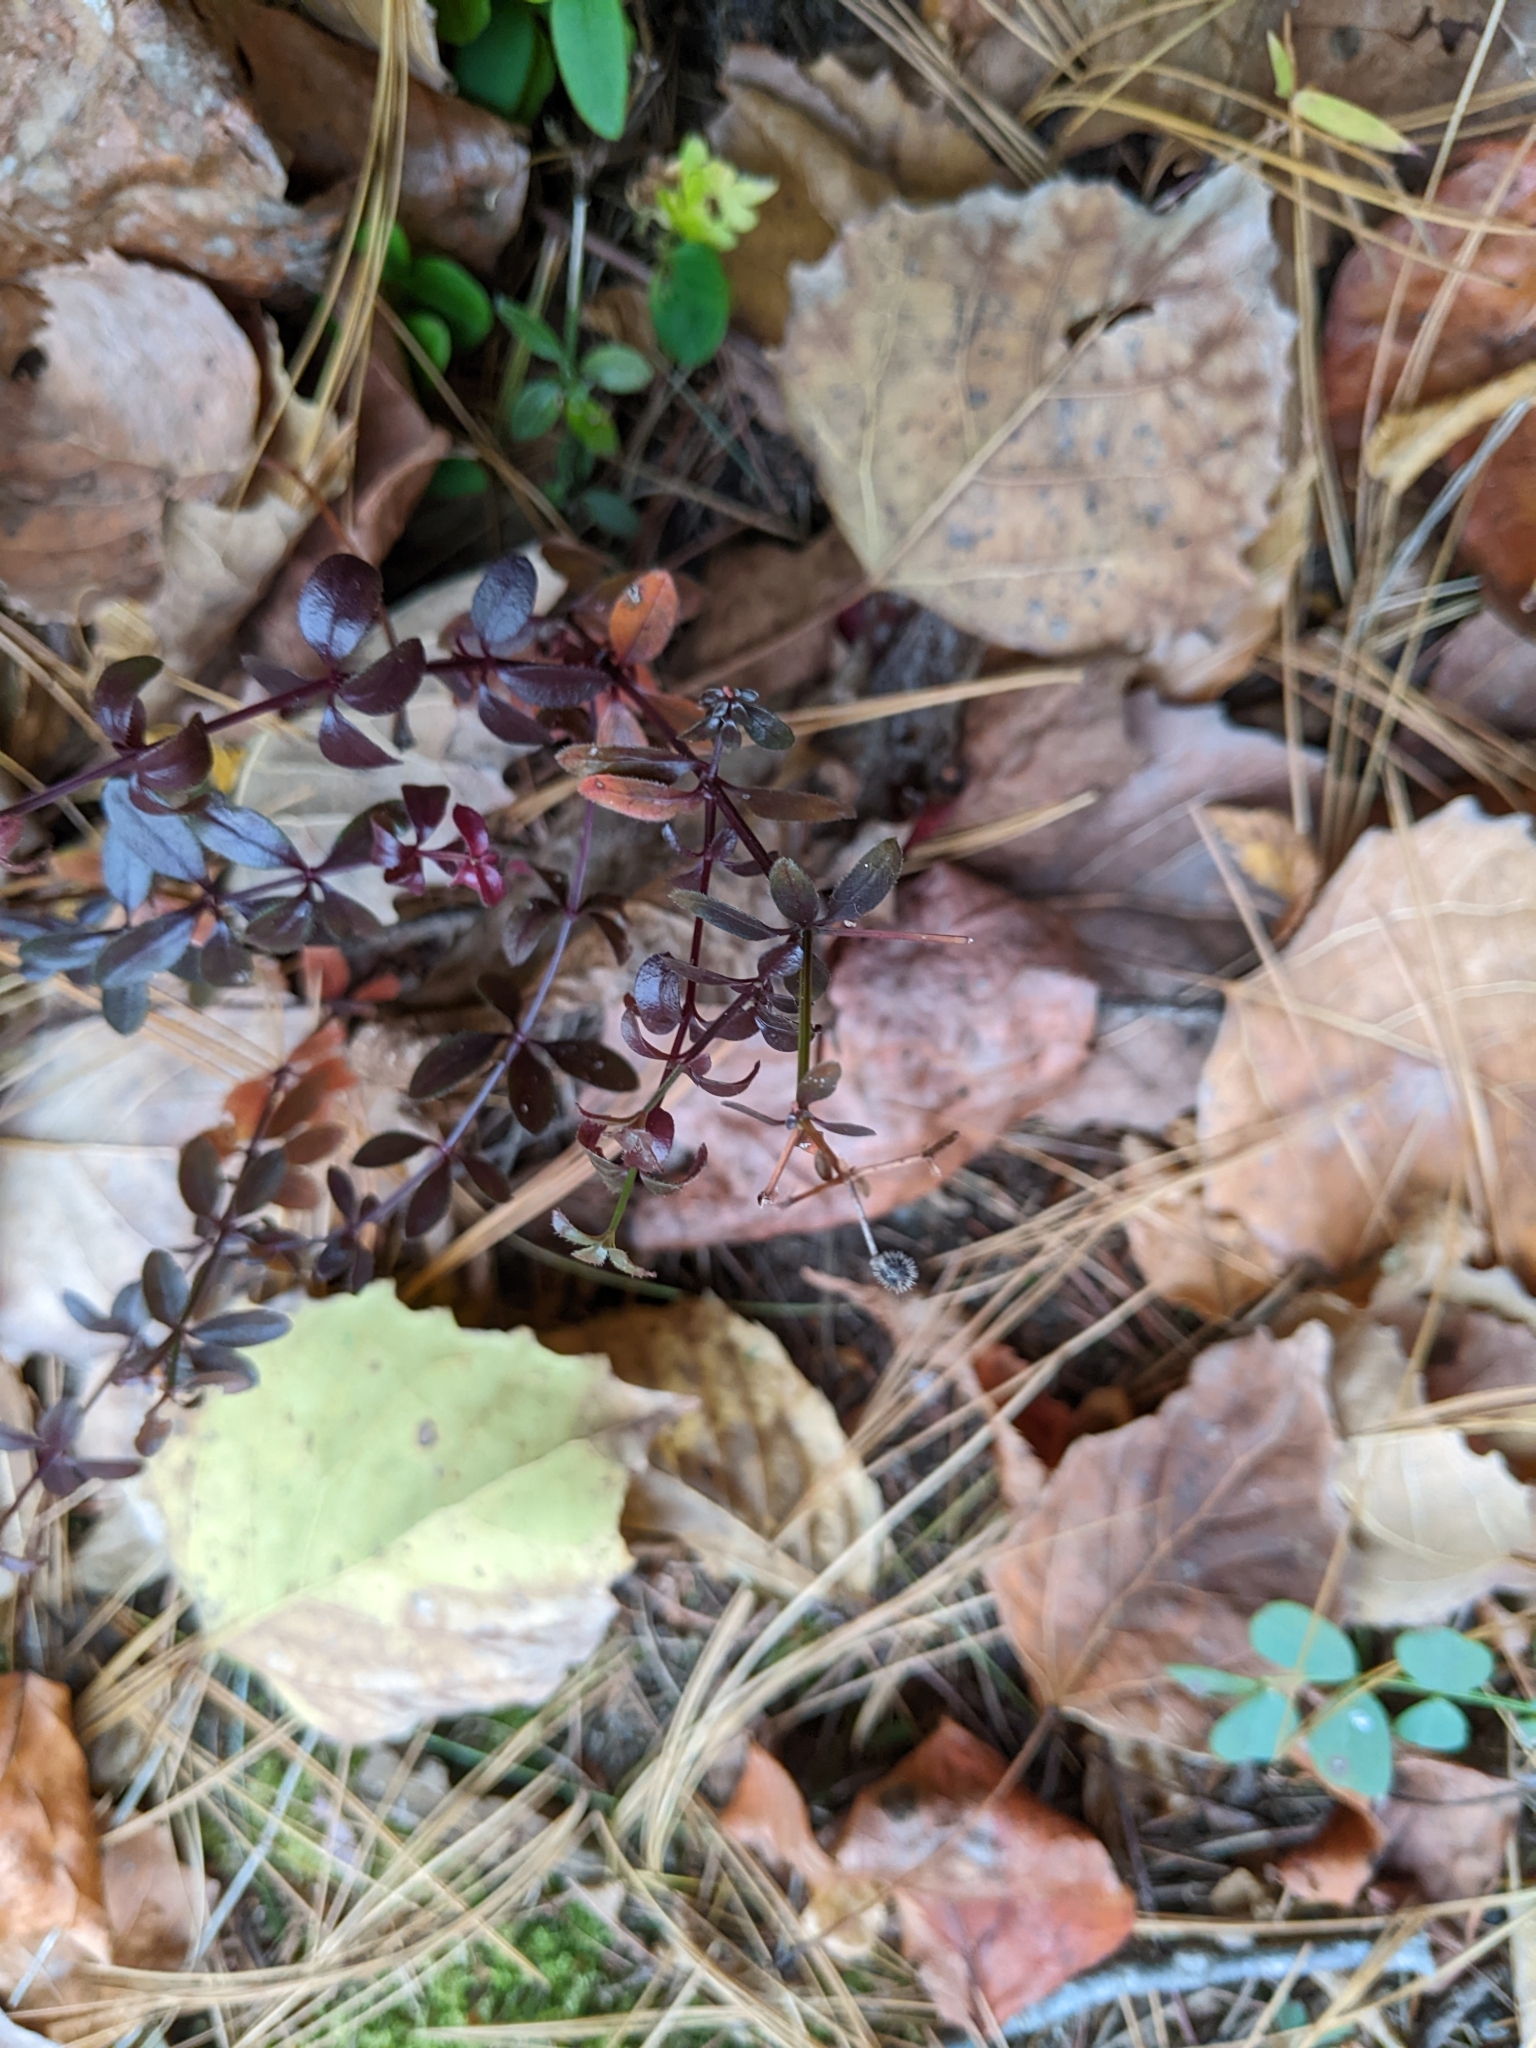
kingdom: Plantae
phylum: Tracheophyta
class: Magnoliopsida
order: Ranunculales
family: Berberidaceae
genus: Berberis
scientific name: Berberis thunbergii
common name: Japanese barberry
